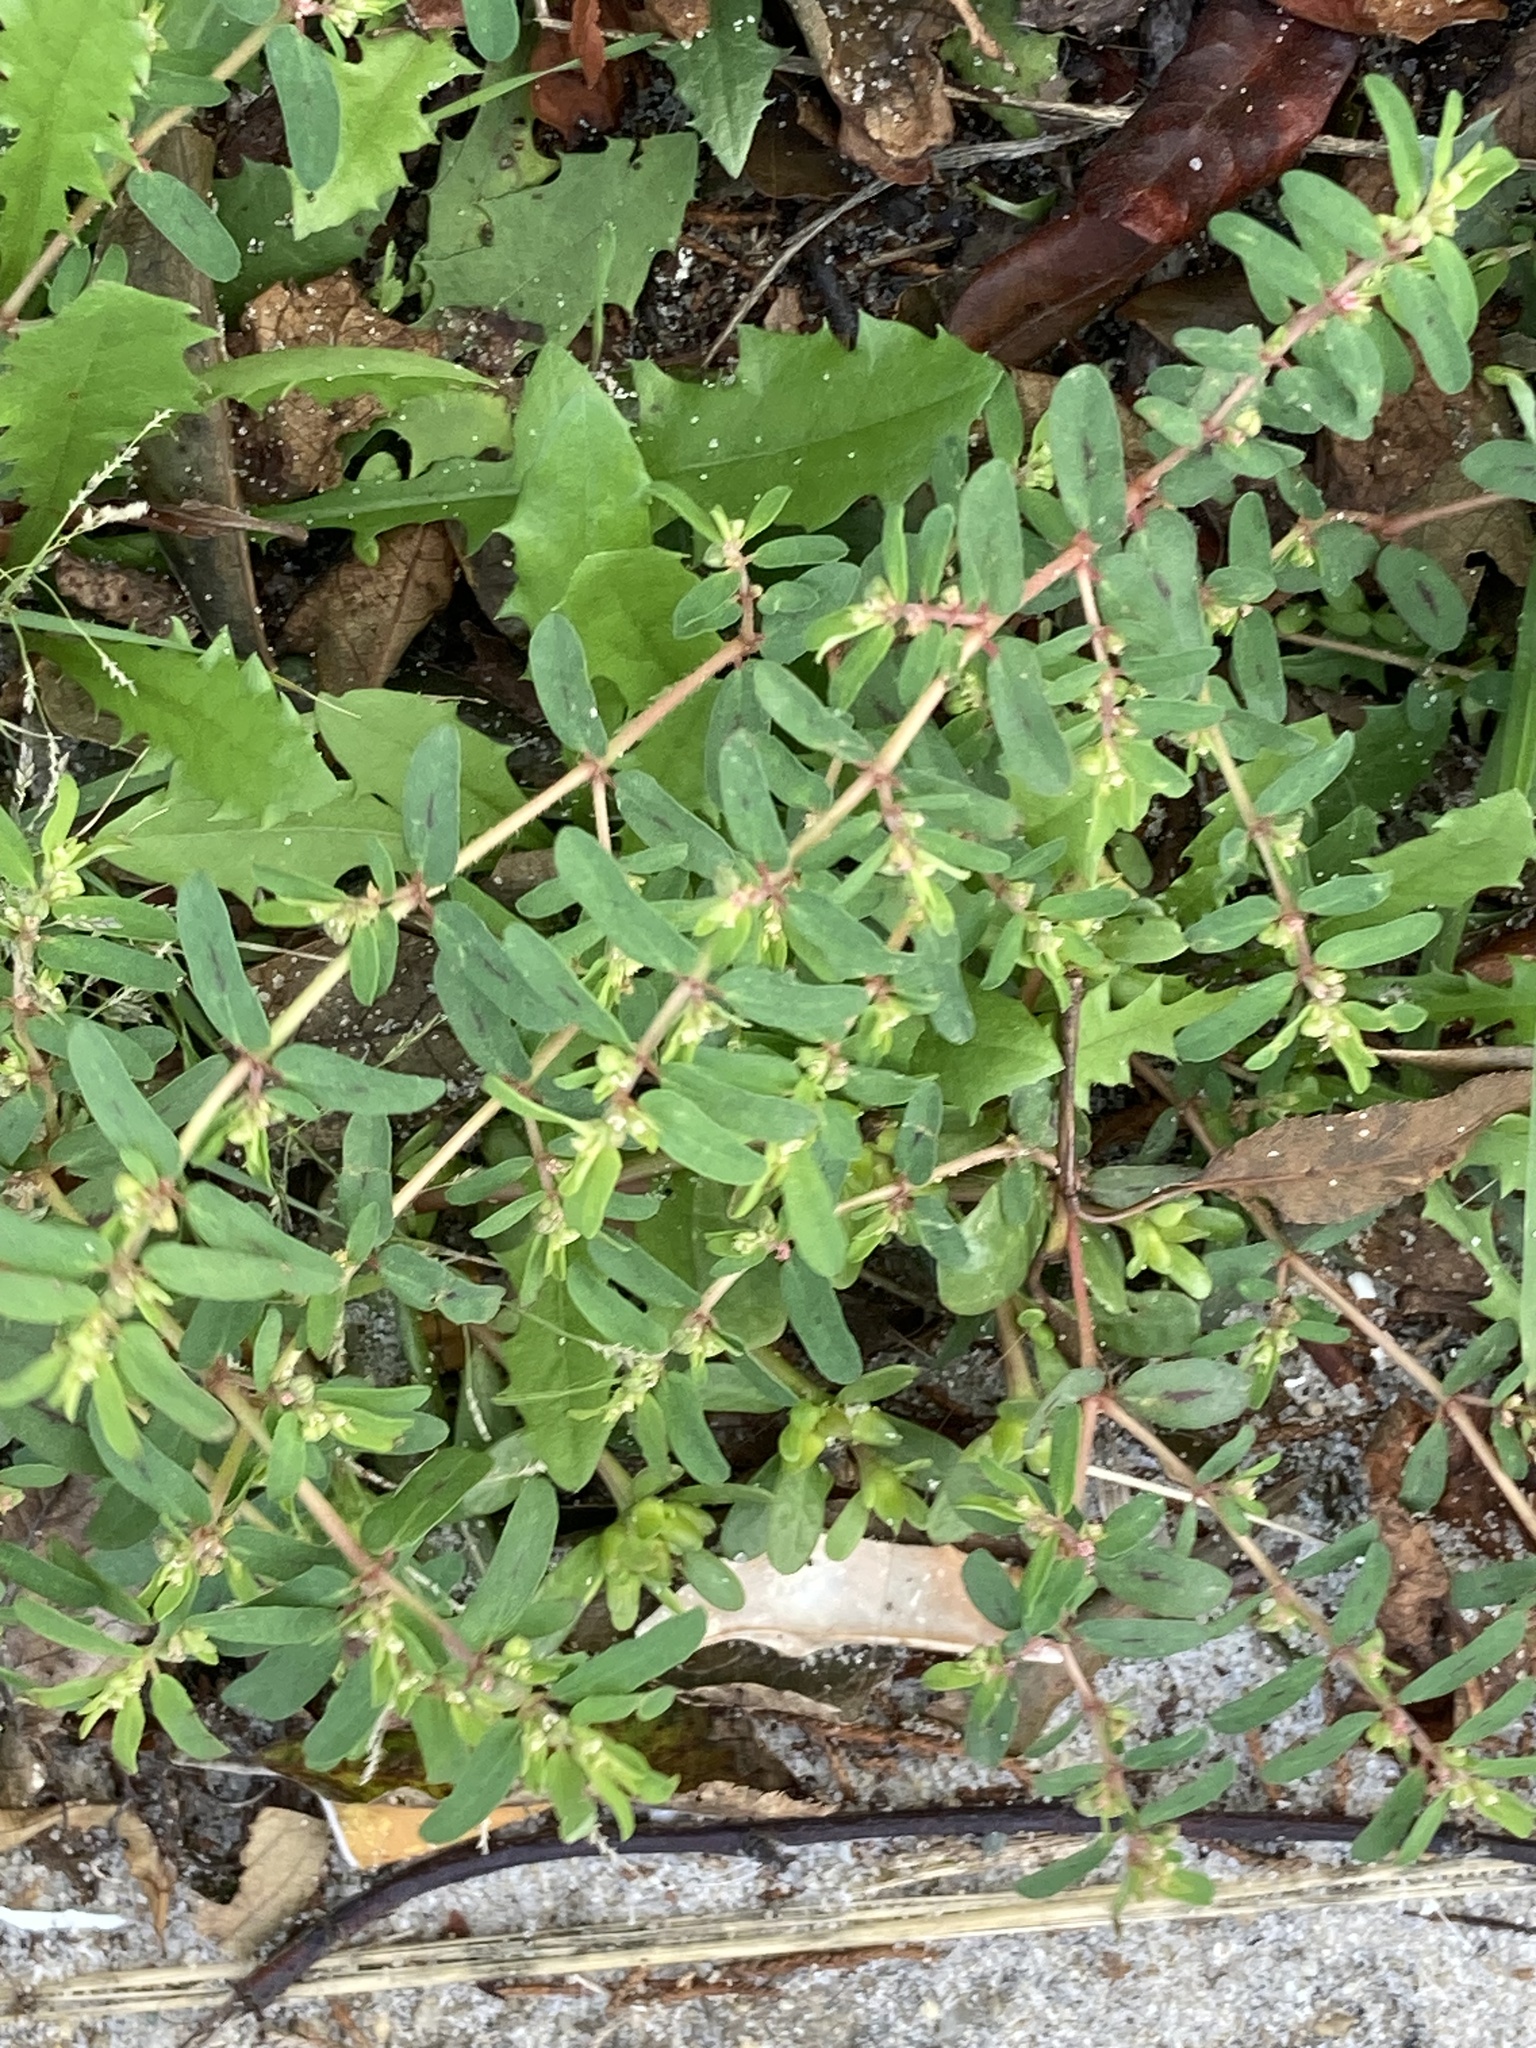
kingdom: Plantae
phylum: Tracheophyta
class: Magnoliopsida
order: Malpighiales
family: Euphorbiaceae
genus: Euphorbia
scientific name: Euphorbia maculata
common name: Spotted spurge
